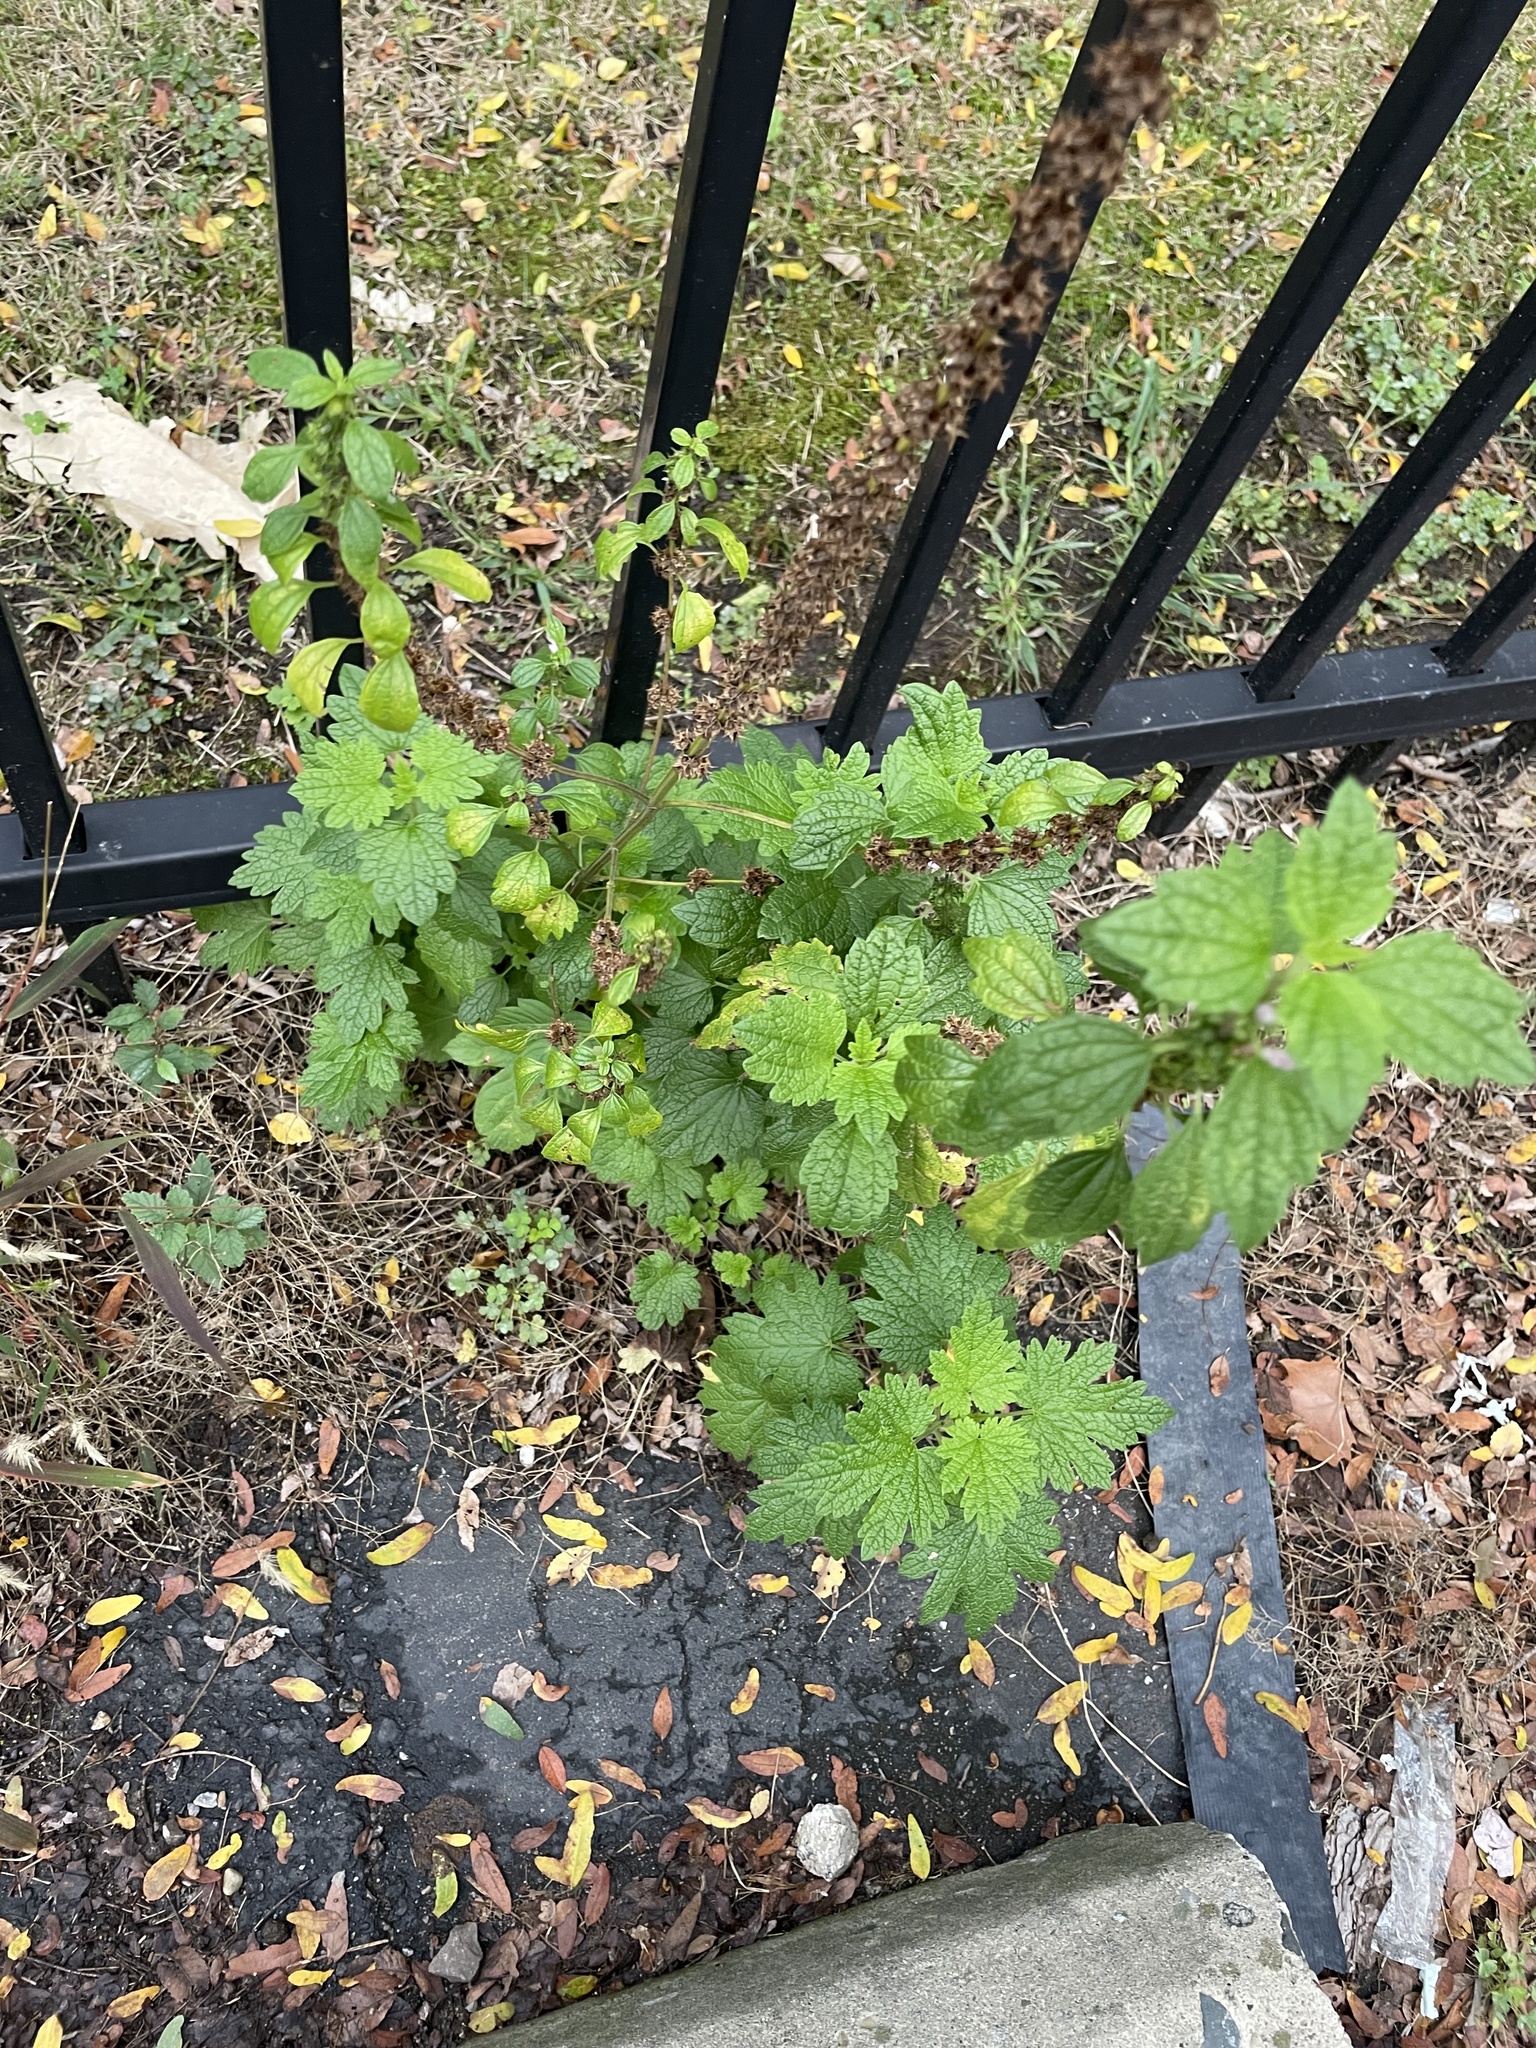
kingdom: Plantae
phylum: Tracheophyta
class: Magnoliopsida
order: Lamiales
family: Lamiaceae
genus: Leonurus
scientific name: Leonurus cardiaca
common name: Motherwort
